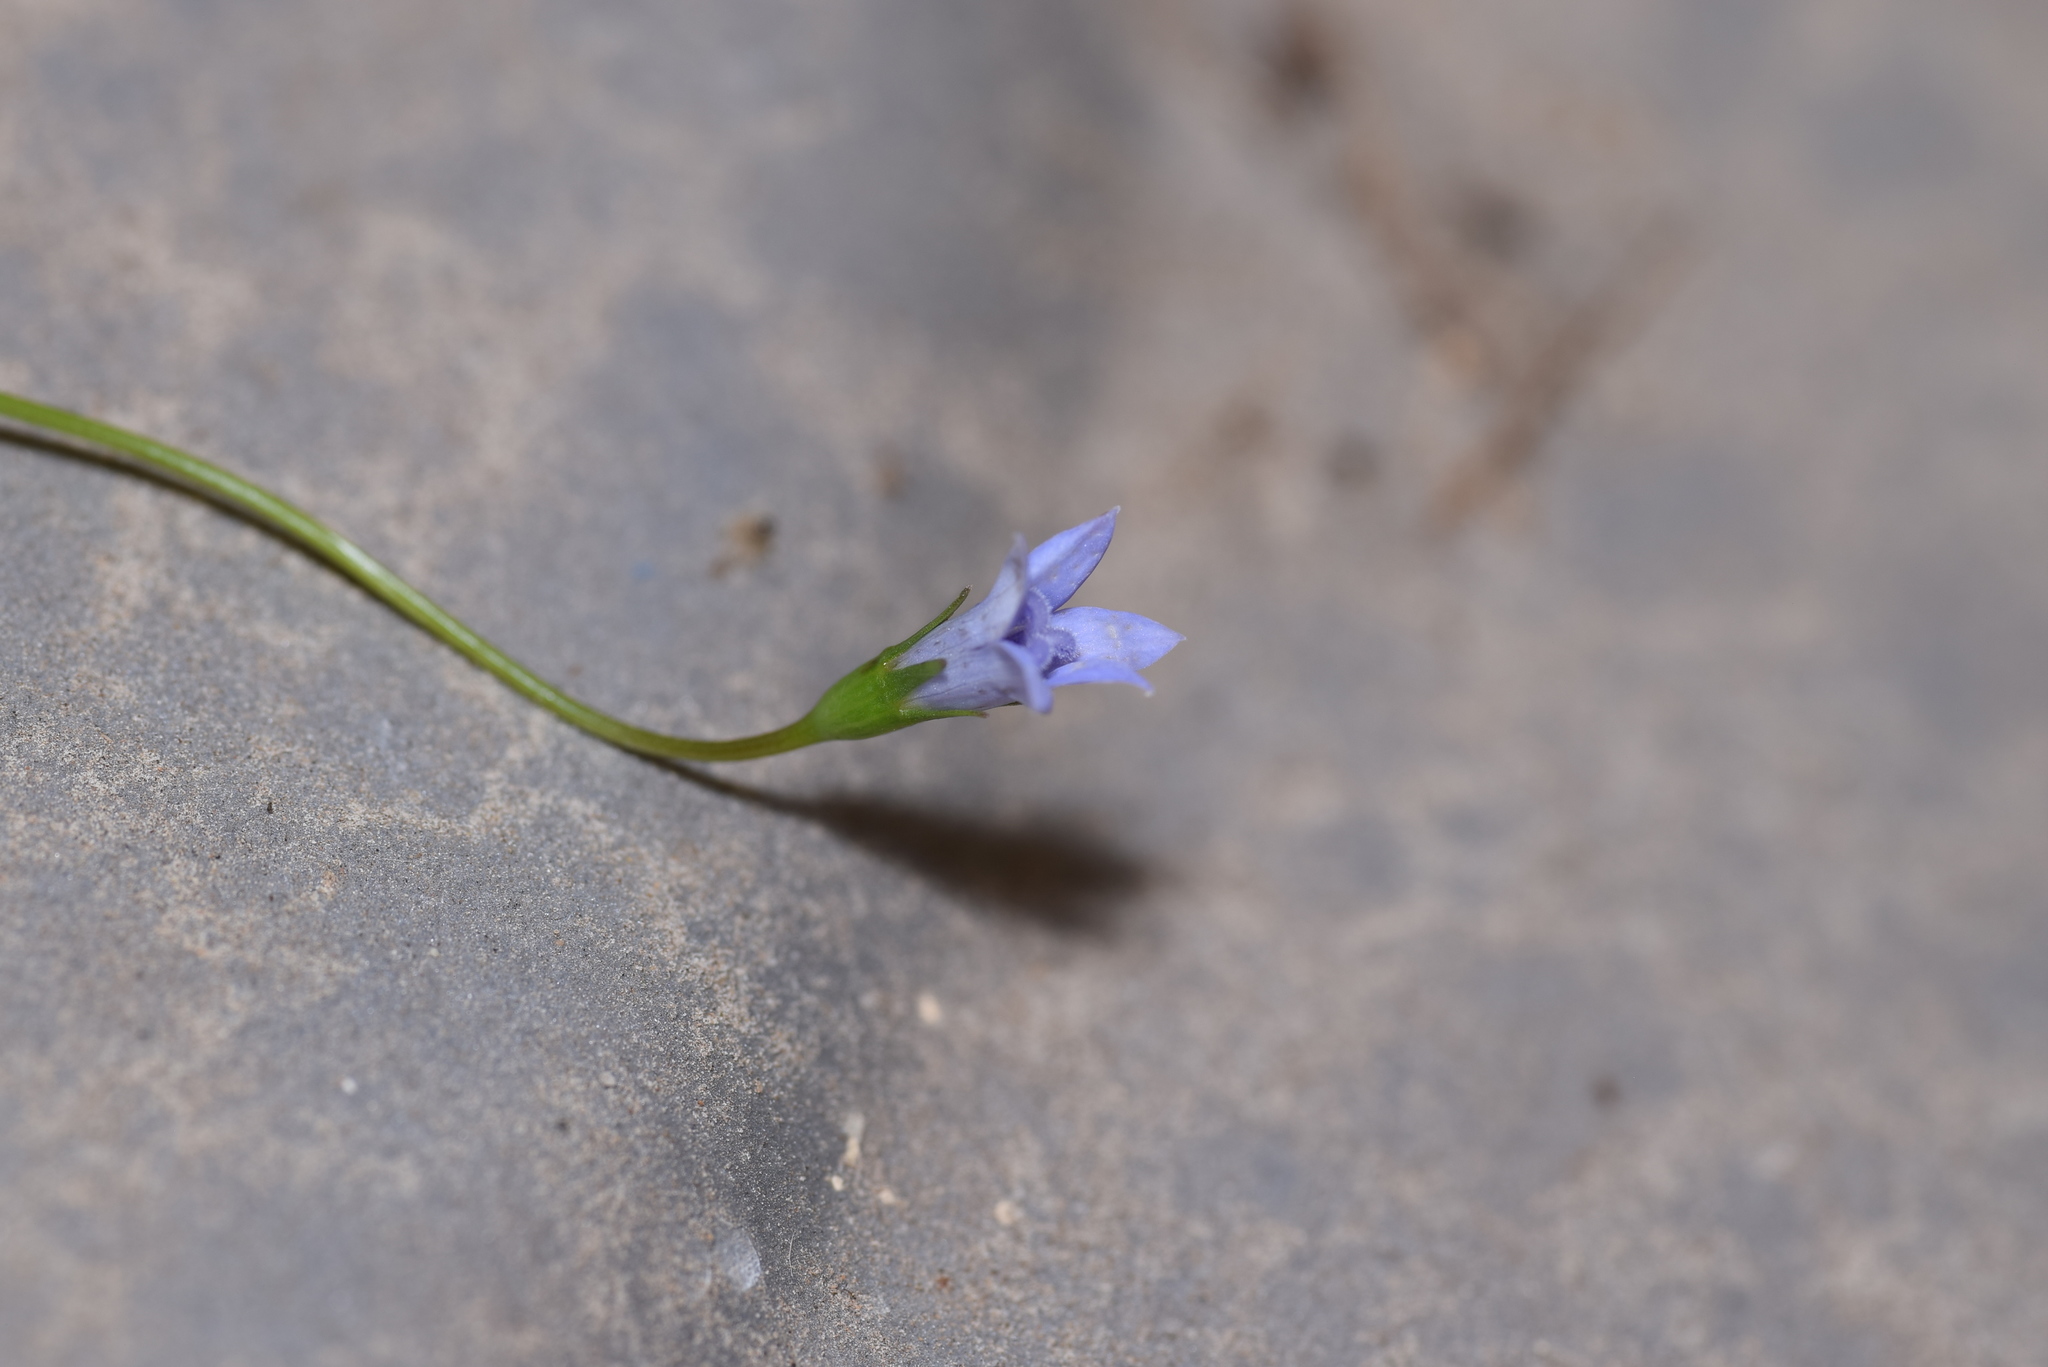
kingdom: Plantae
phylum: Tracheophyta
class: Magnoliopsida
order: Asterales
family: Campanulaceae
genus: Wahlenbergia
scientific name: Wahlenbergia marginata
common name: Southern rockbell
